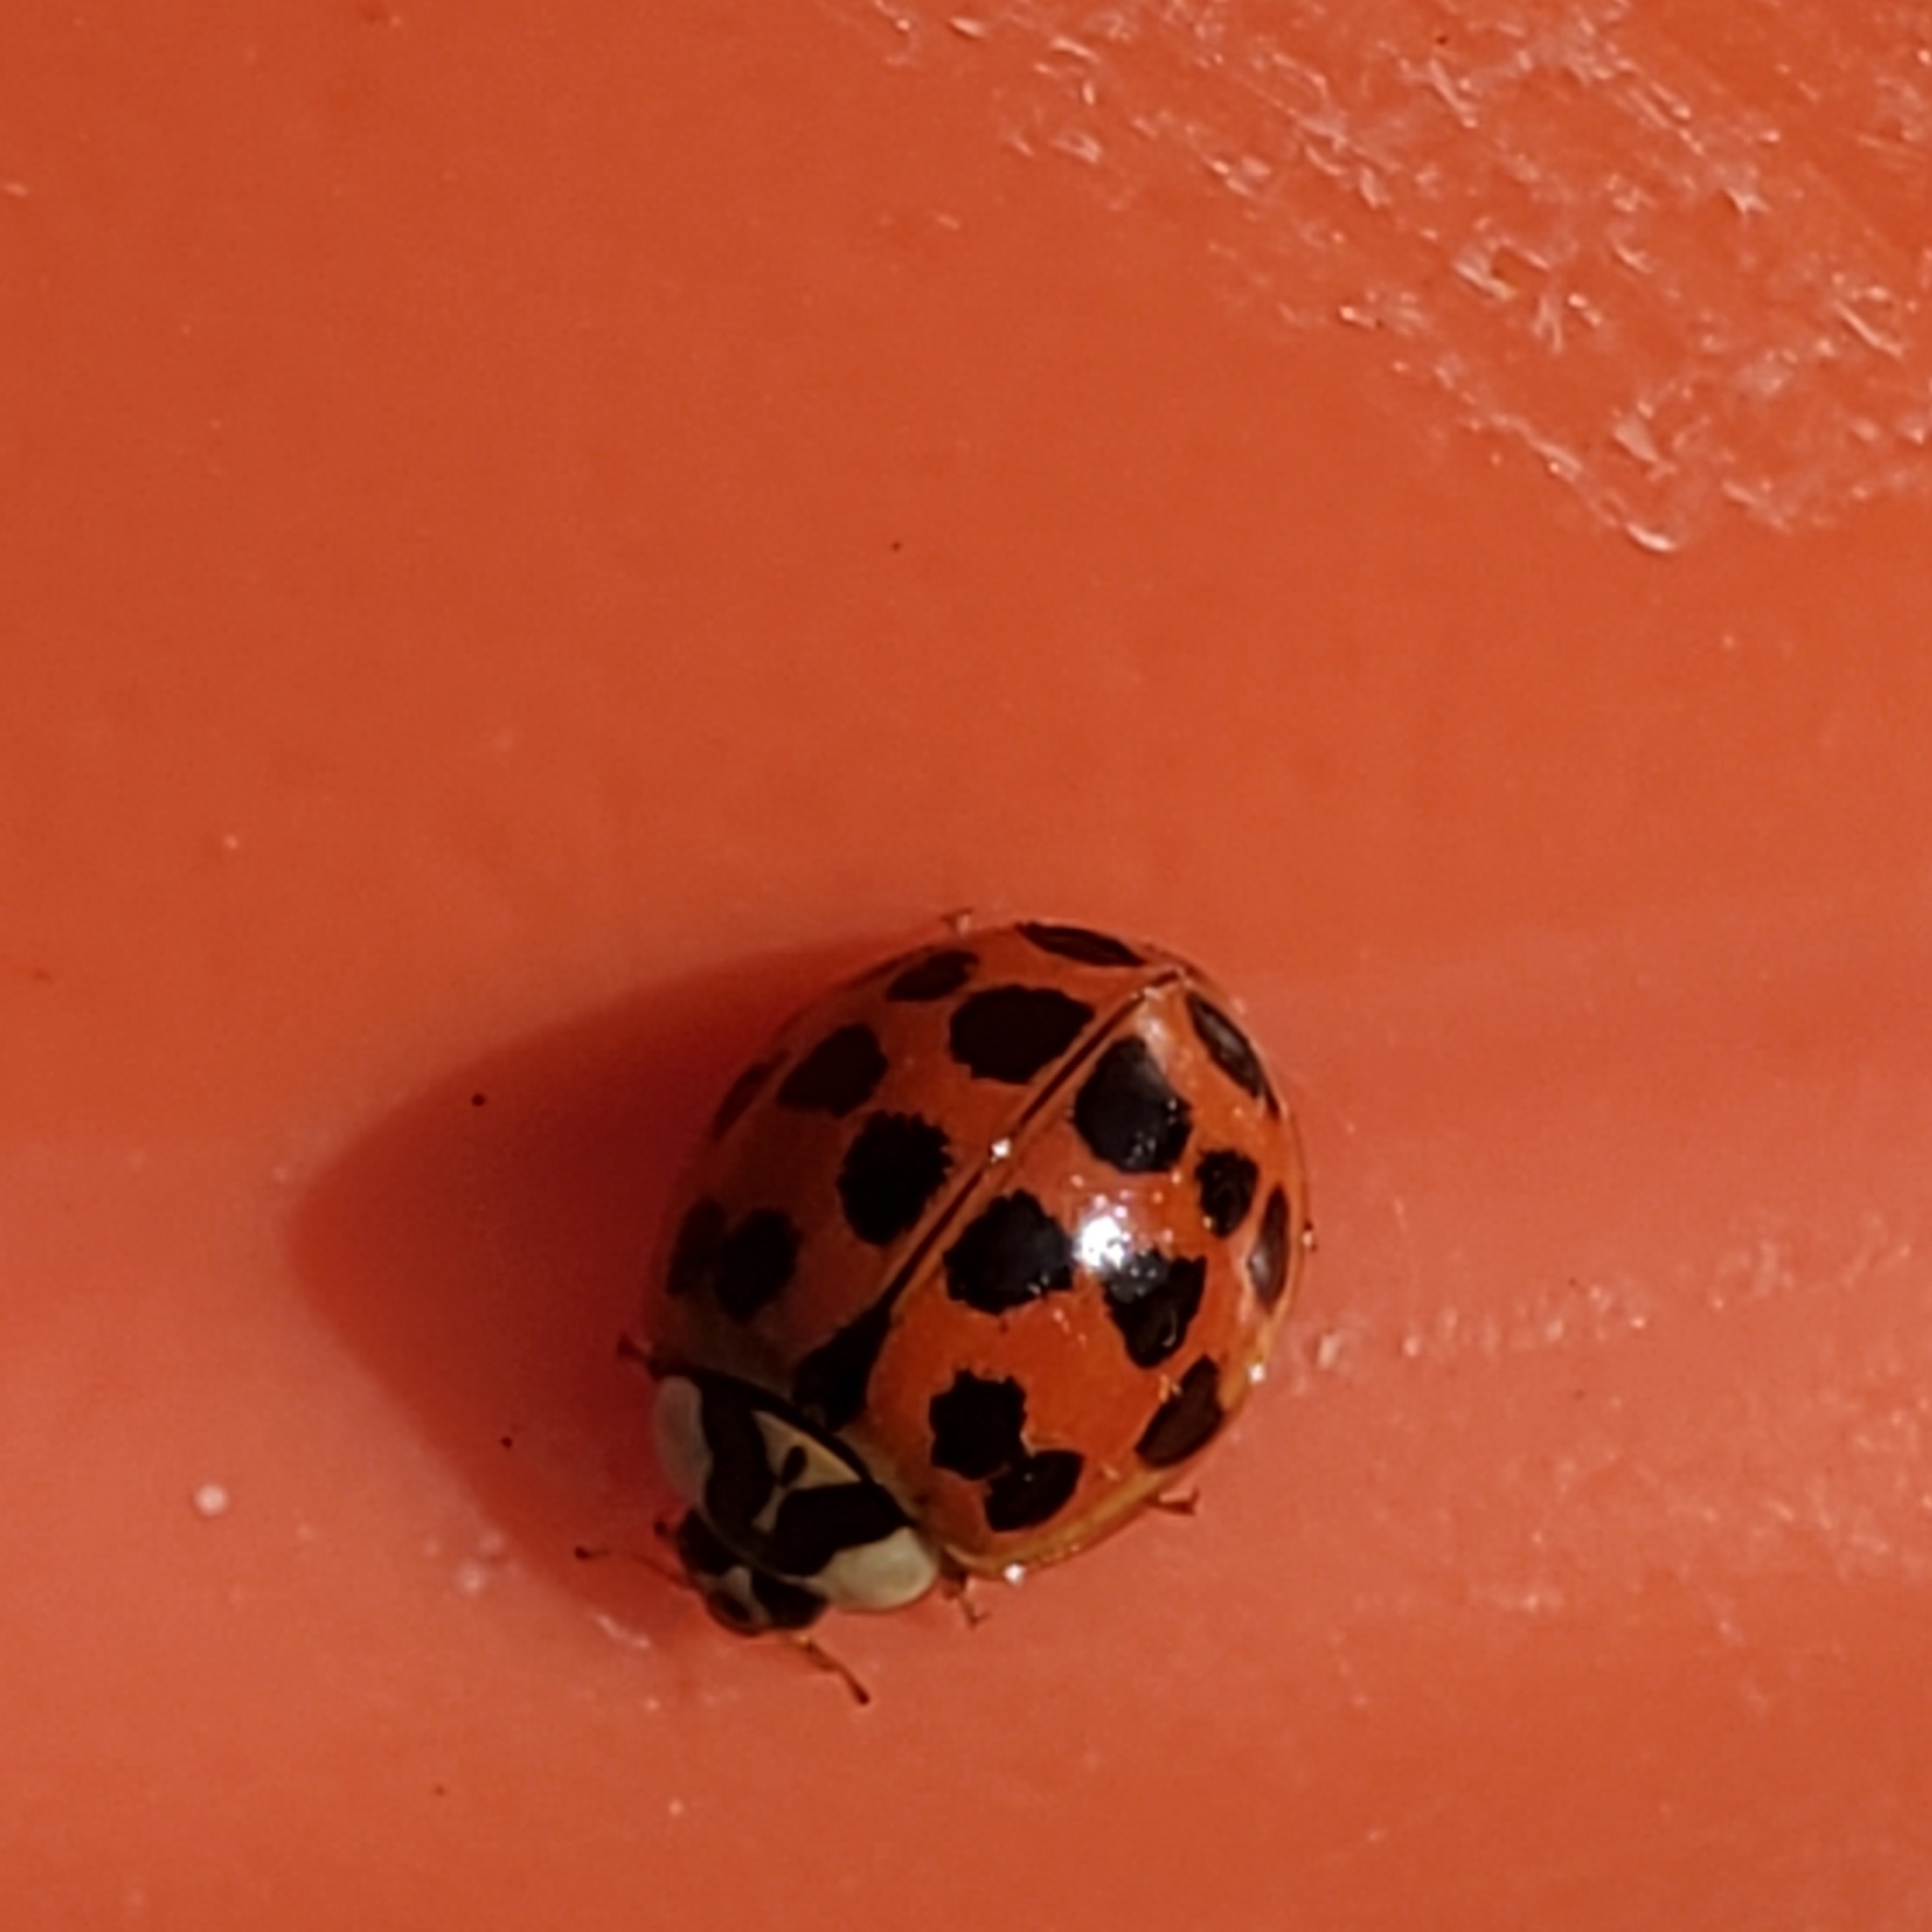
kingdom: Animalia
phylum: Arthropoda
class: Insecta
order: Coleoptera
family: Coccinellidae
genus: Harmonia
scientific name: Harmonia axyridis
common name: Harlequin ladybird
